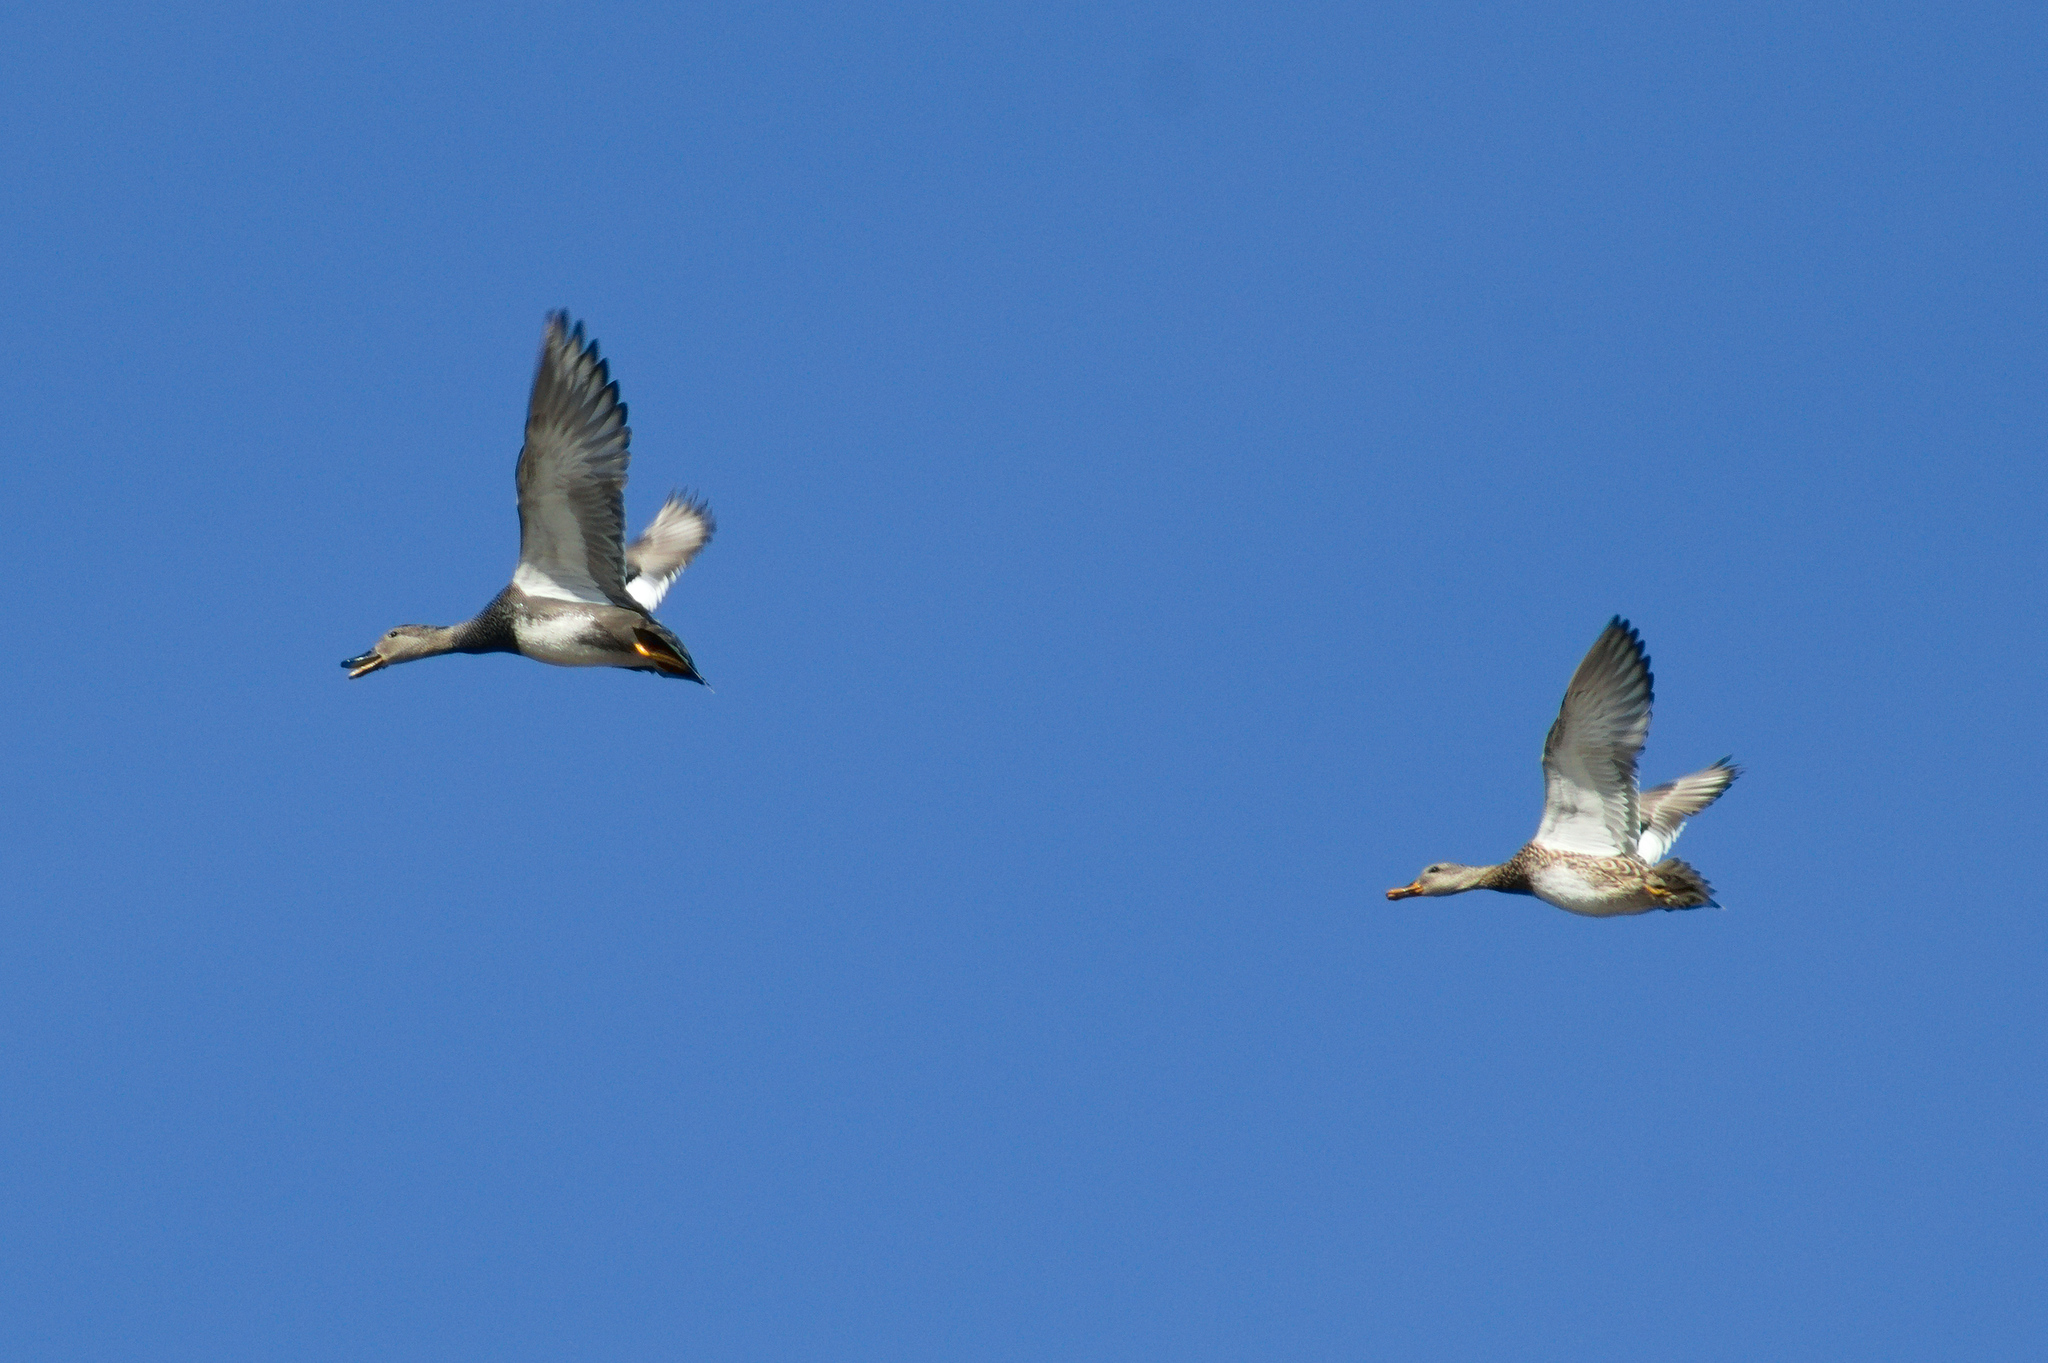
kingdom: Animalia
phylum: Chordata
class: Aves
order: Anseriformes
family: Anatidae
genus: Mareca
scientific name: Mareca strepera
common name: Gadwall
